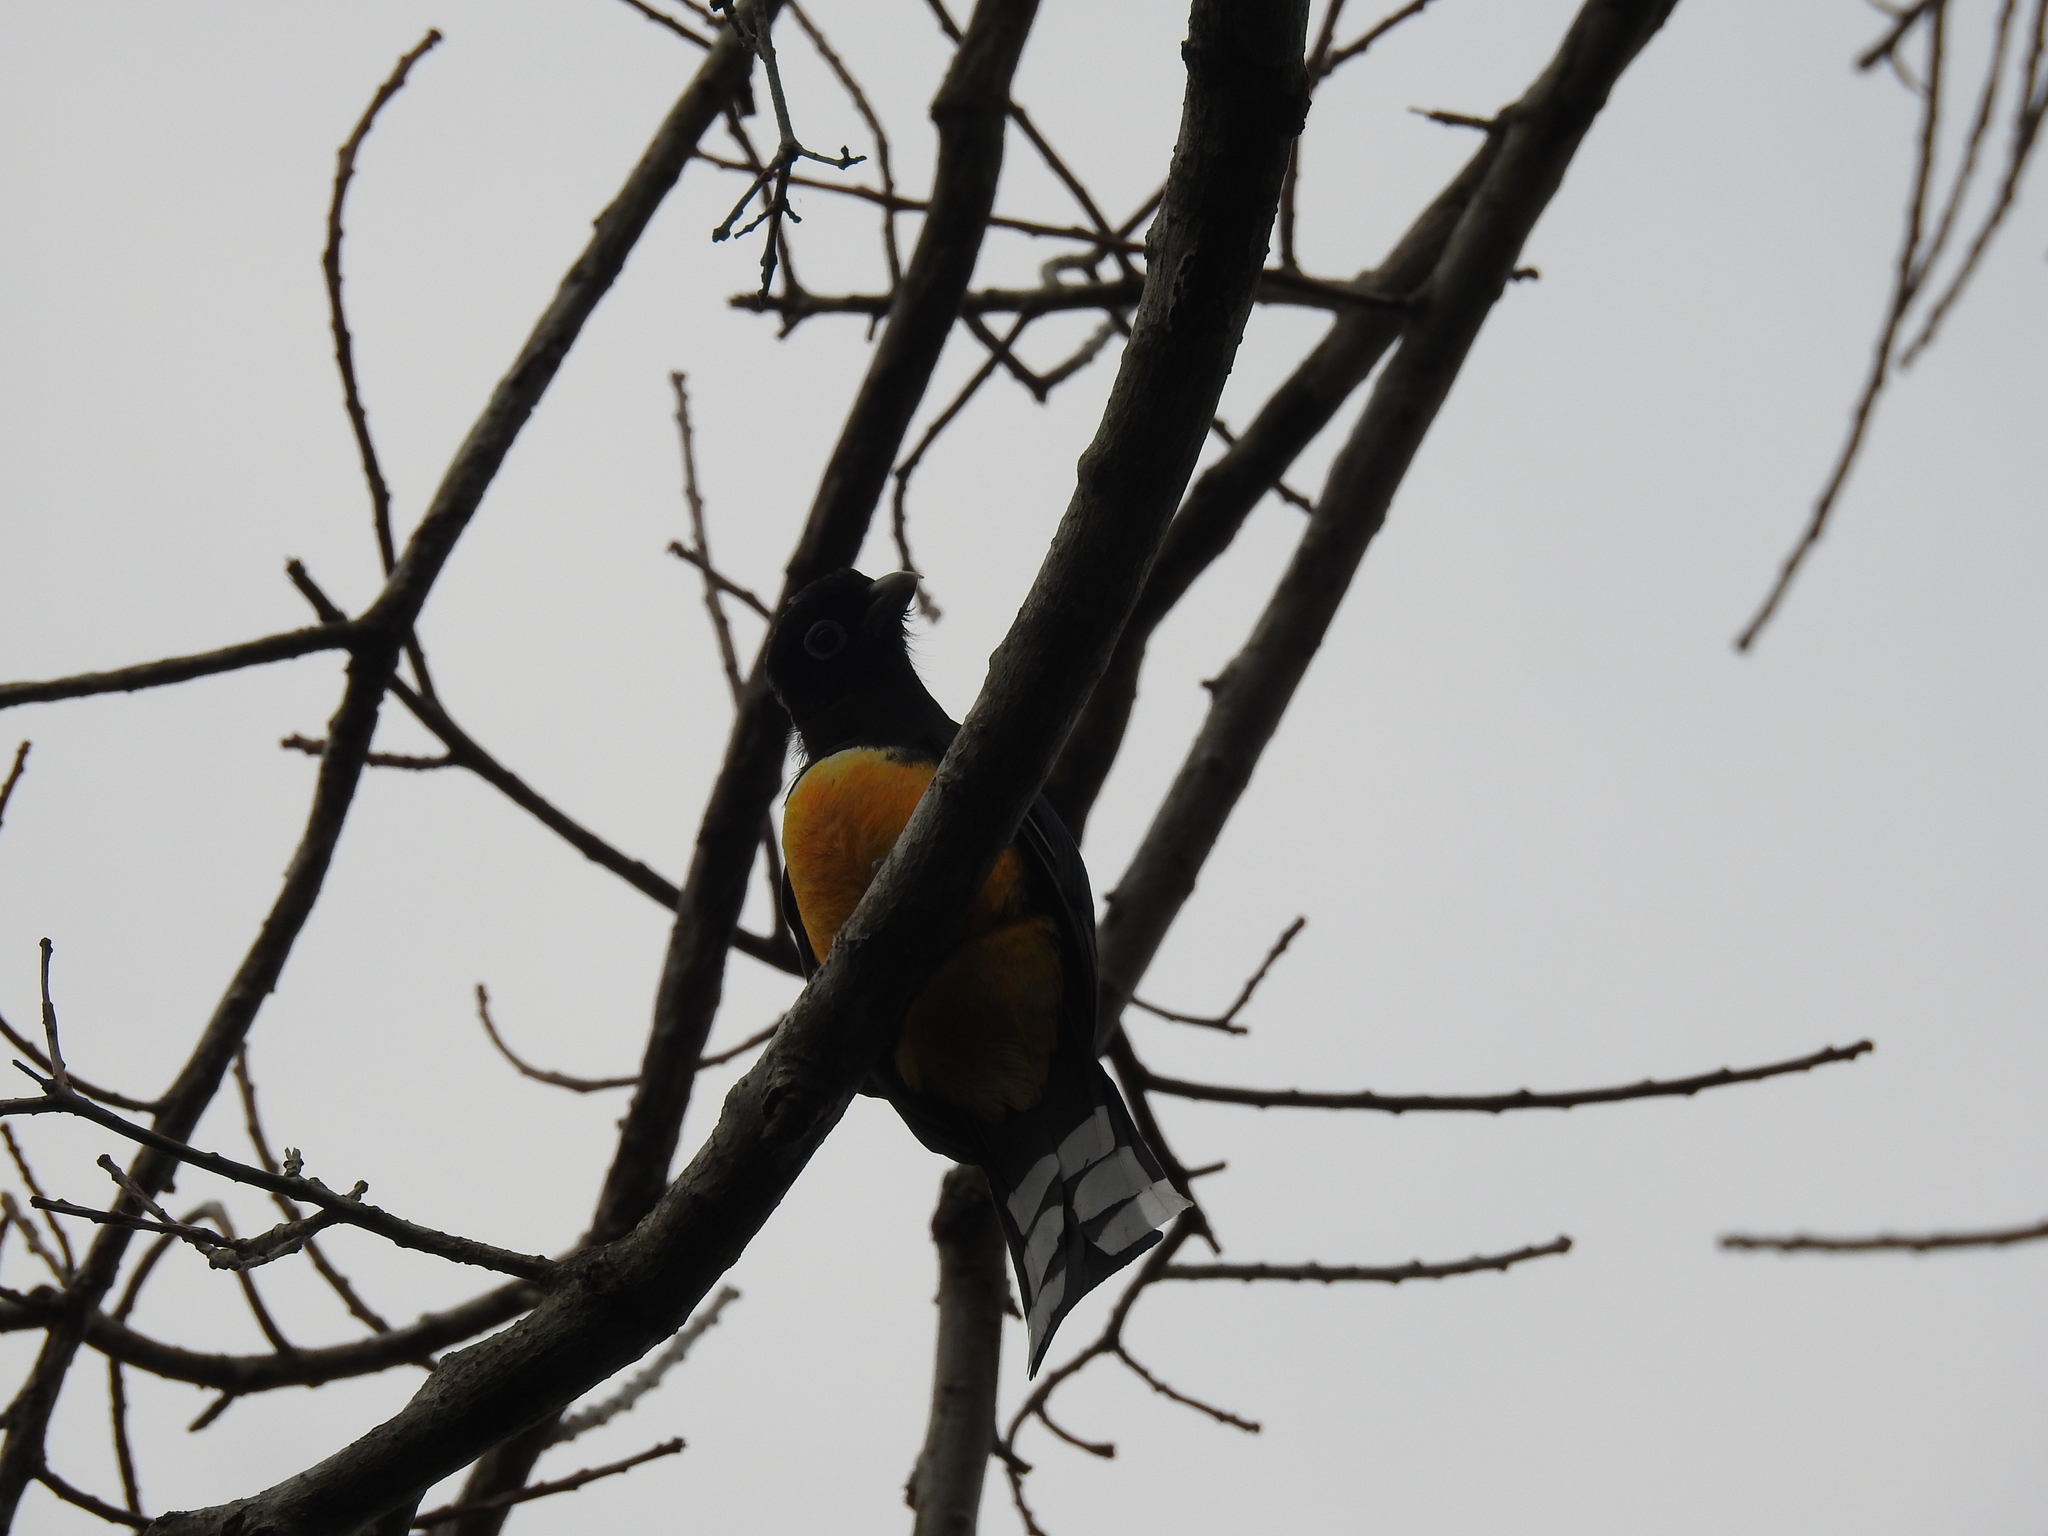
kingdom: Animalia
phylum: Chordata
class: Aves
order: Trogoniformes
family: Trogonidae
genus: Trogon
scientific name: Trogon melanocephalus
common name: Black-headed trogon
